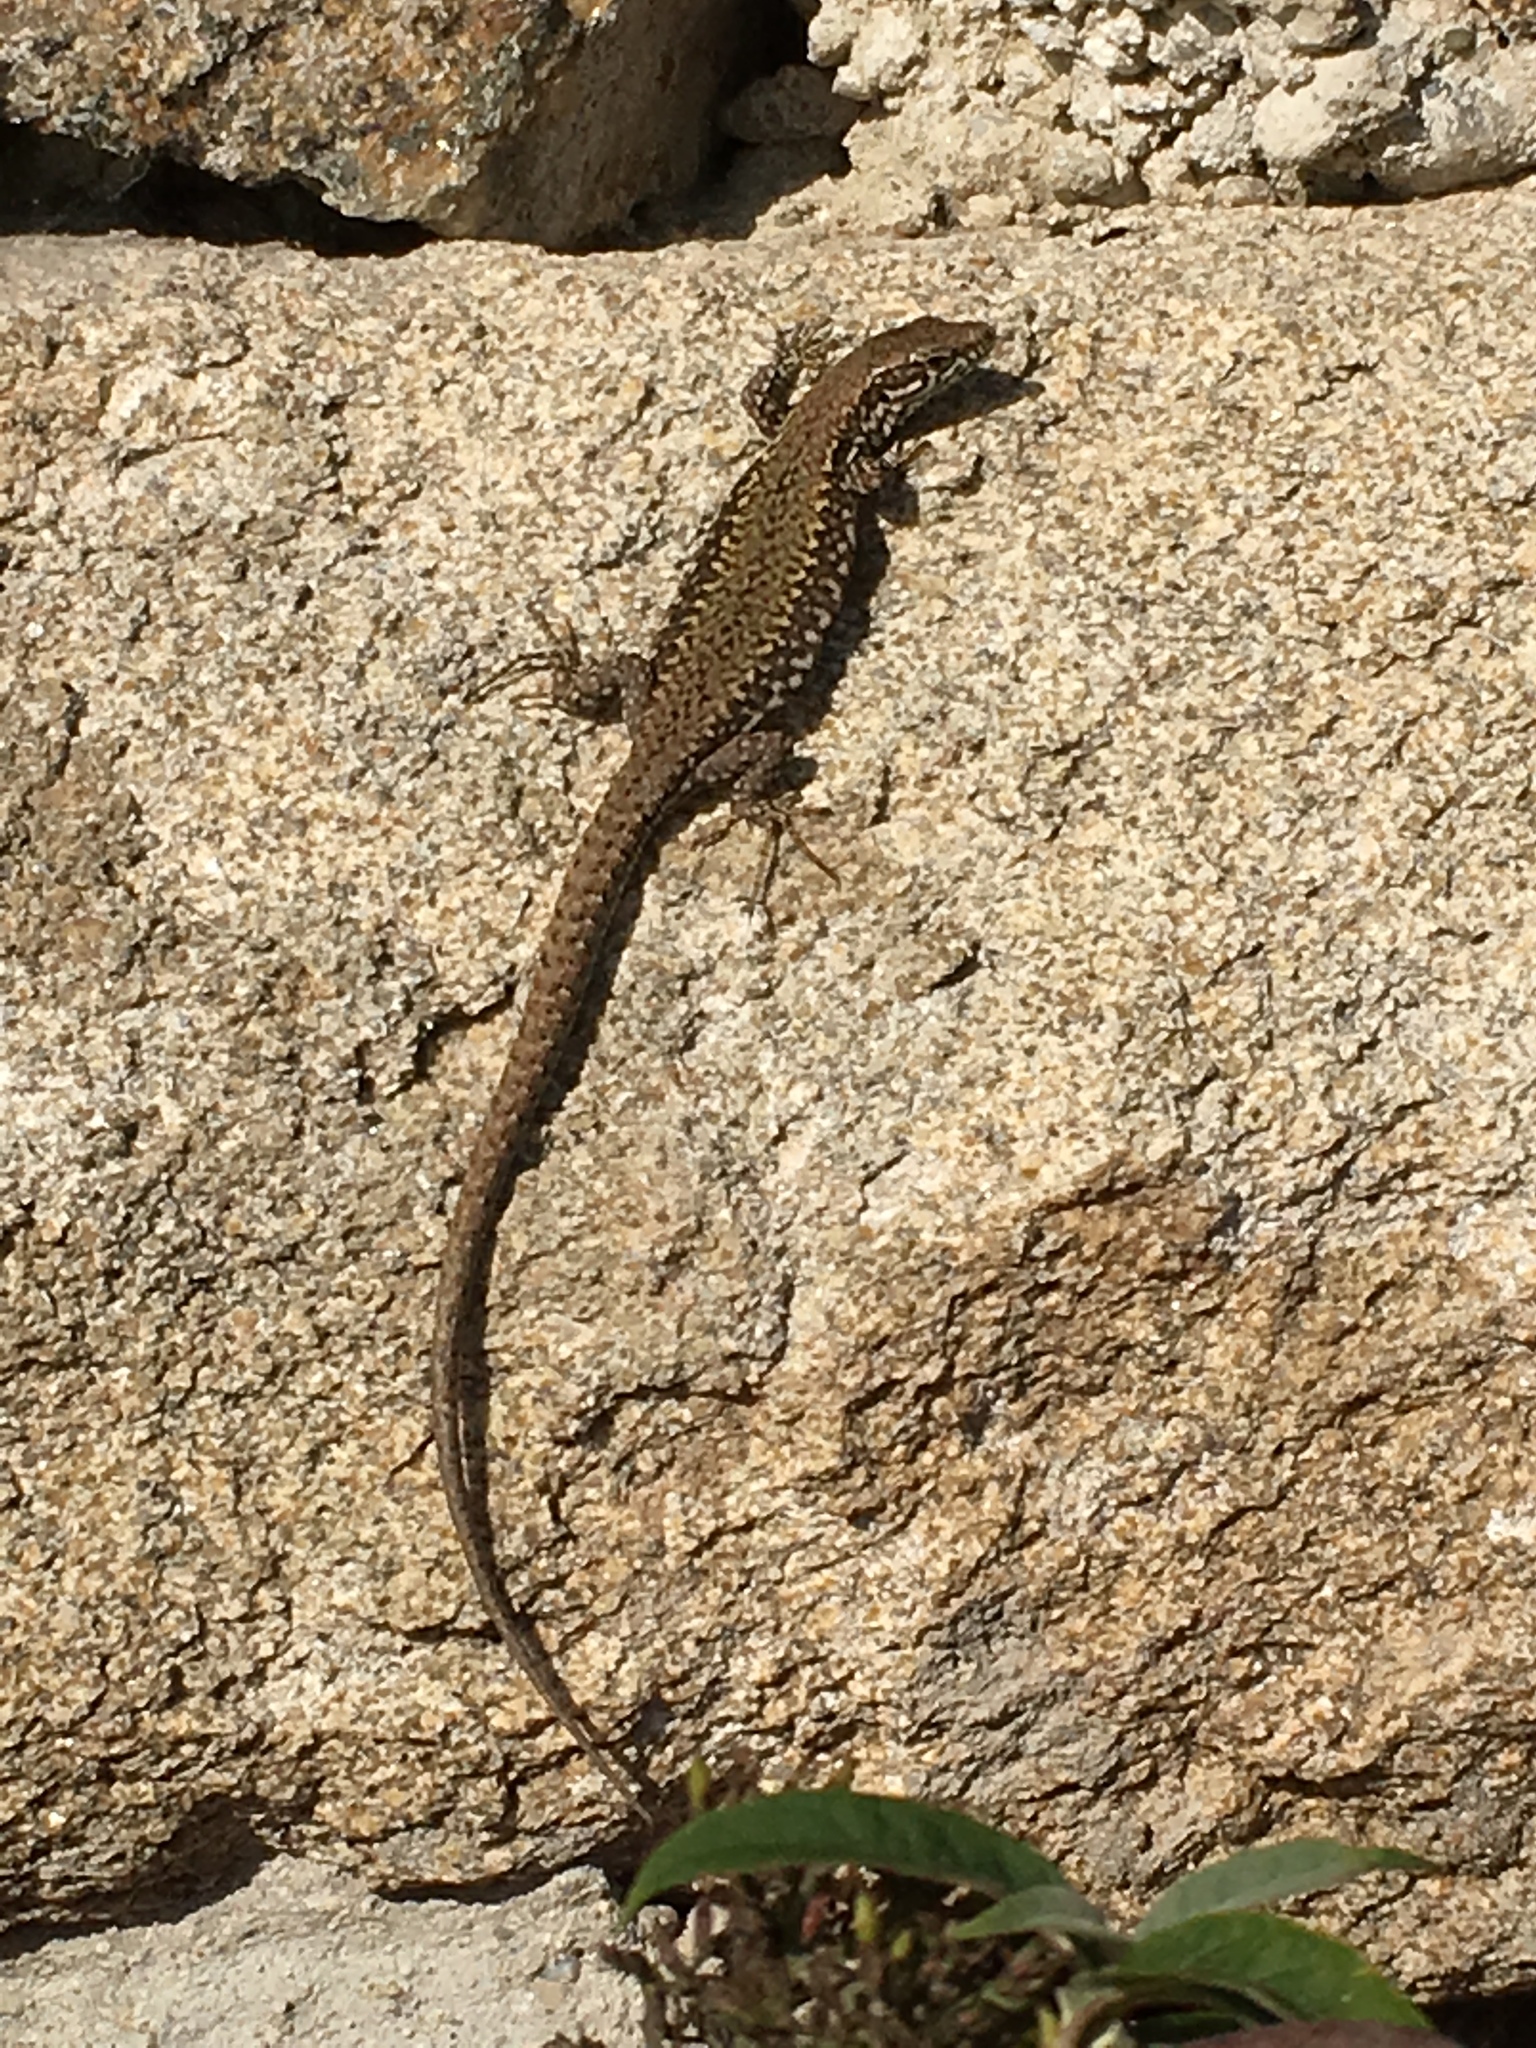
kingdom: Animalia
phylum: Chordata
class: Squamata
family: Lacertidae
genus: Podarcis
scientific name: Podarcis muralis
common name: Common wall lizard
